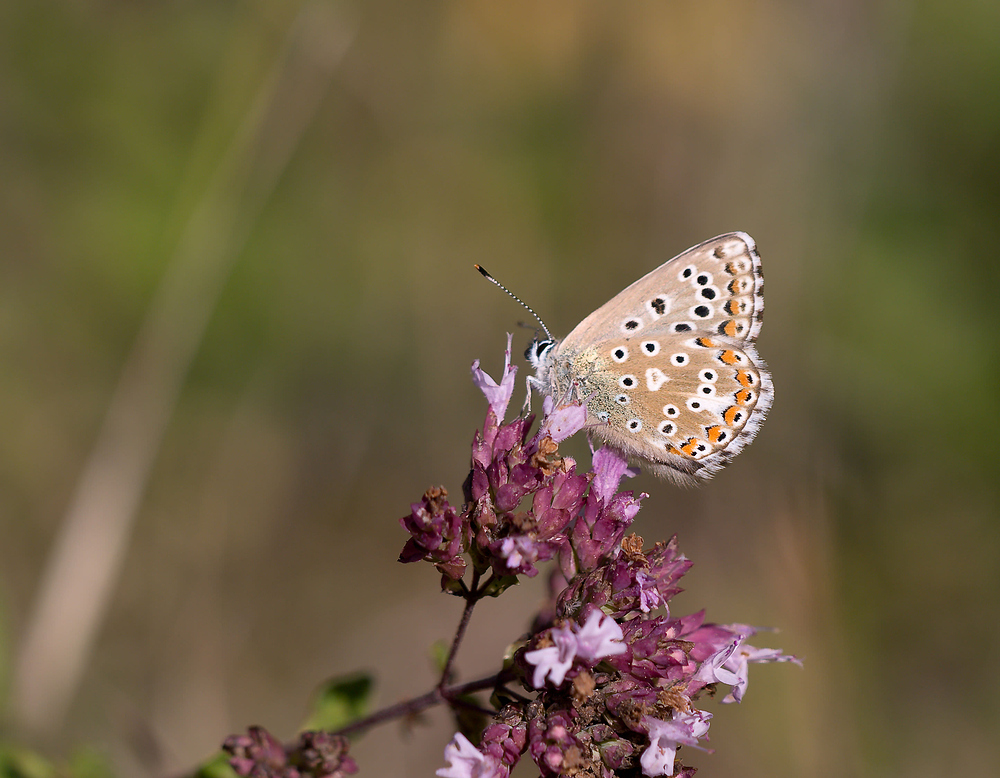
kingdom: Animalia
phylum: Arthropoda
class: Insecta
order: Lepidoptera
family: Lycaenidae
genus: Lysandra
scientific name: Lysandra bellargus
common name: Adonis blue
